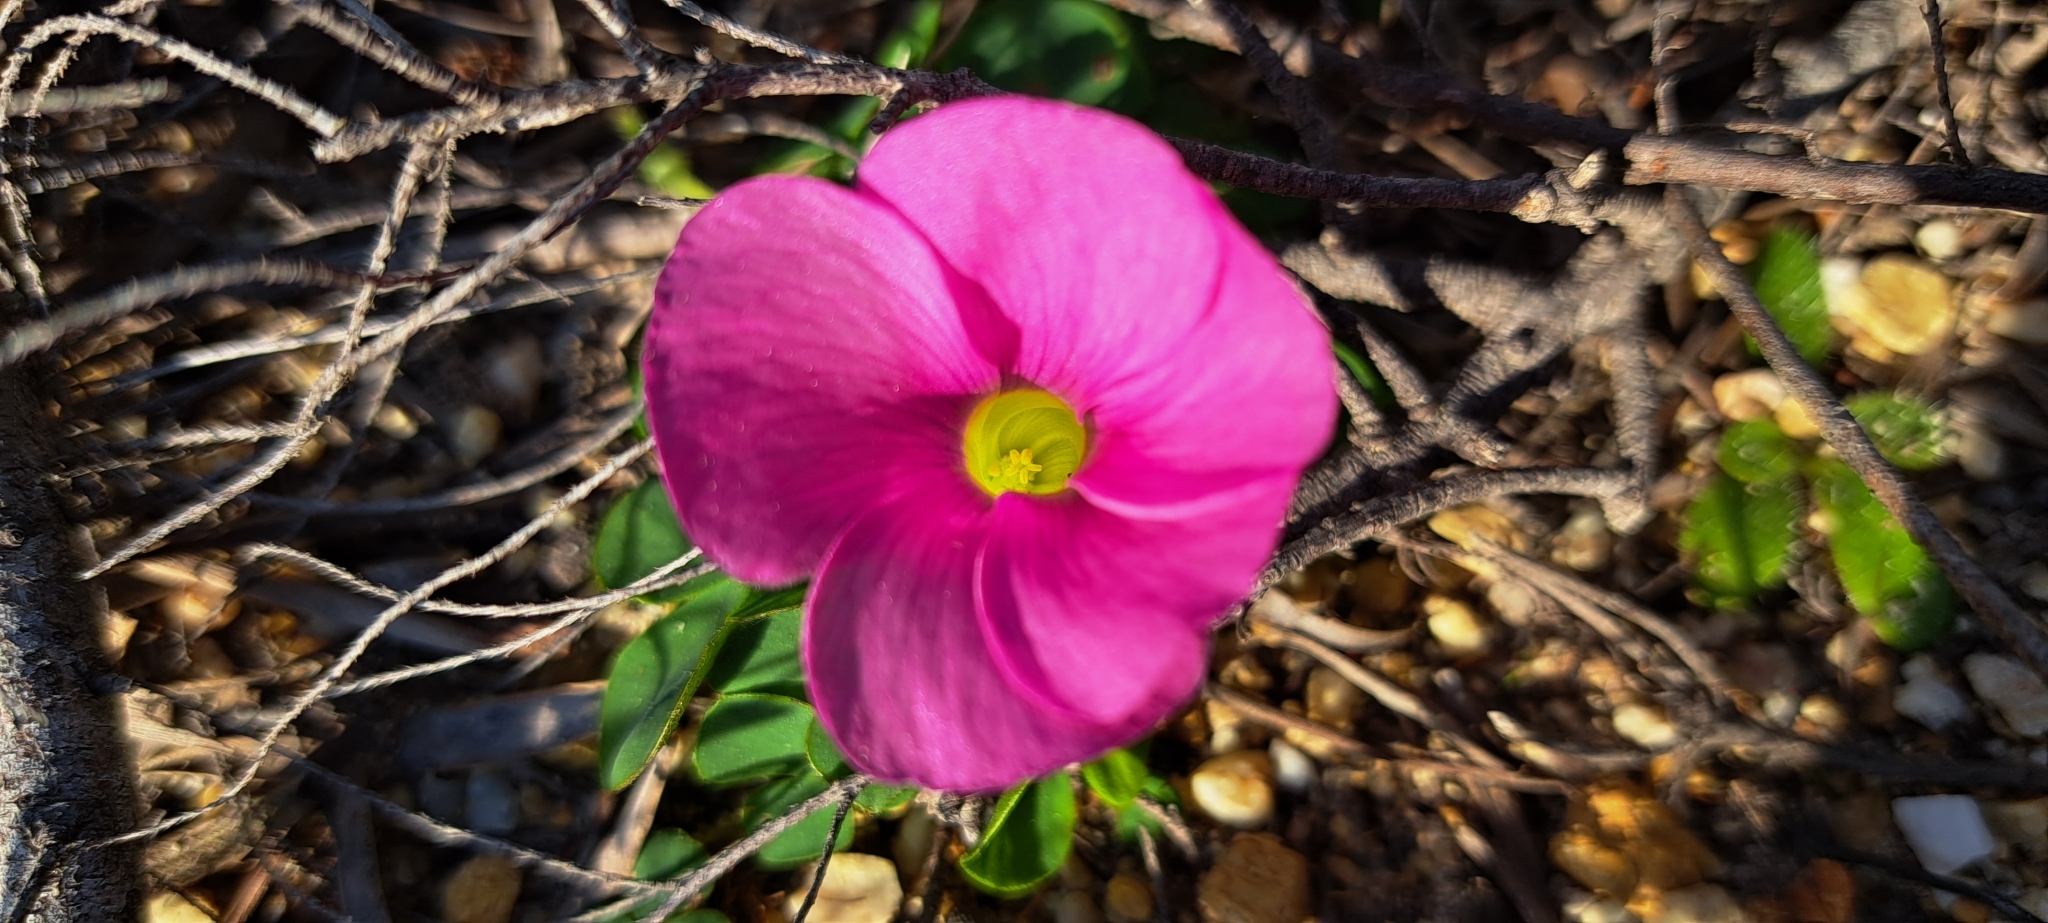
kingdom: Plantae
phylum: Tracheophyta
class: Magnoliopsida
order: Oxalidales
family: Oxalidaceae
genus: Oxalis
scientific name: Oxalis purpurea
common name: Purple woodsorrel
